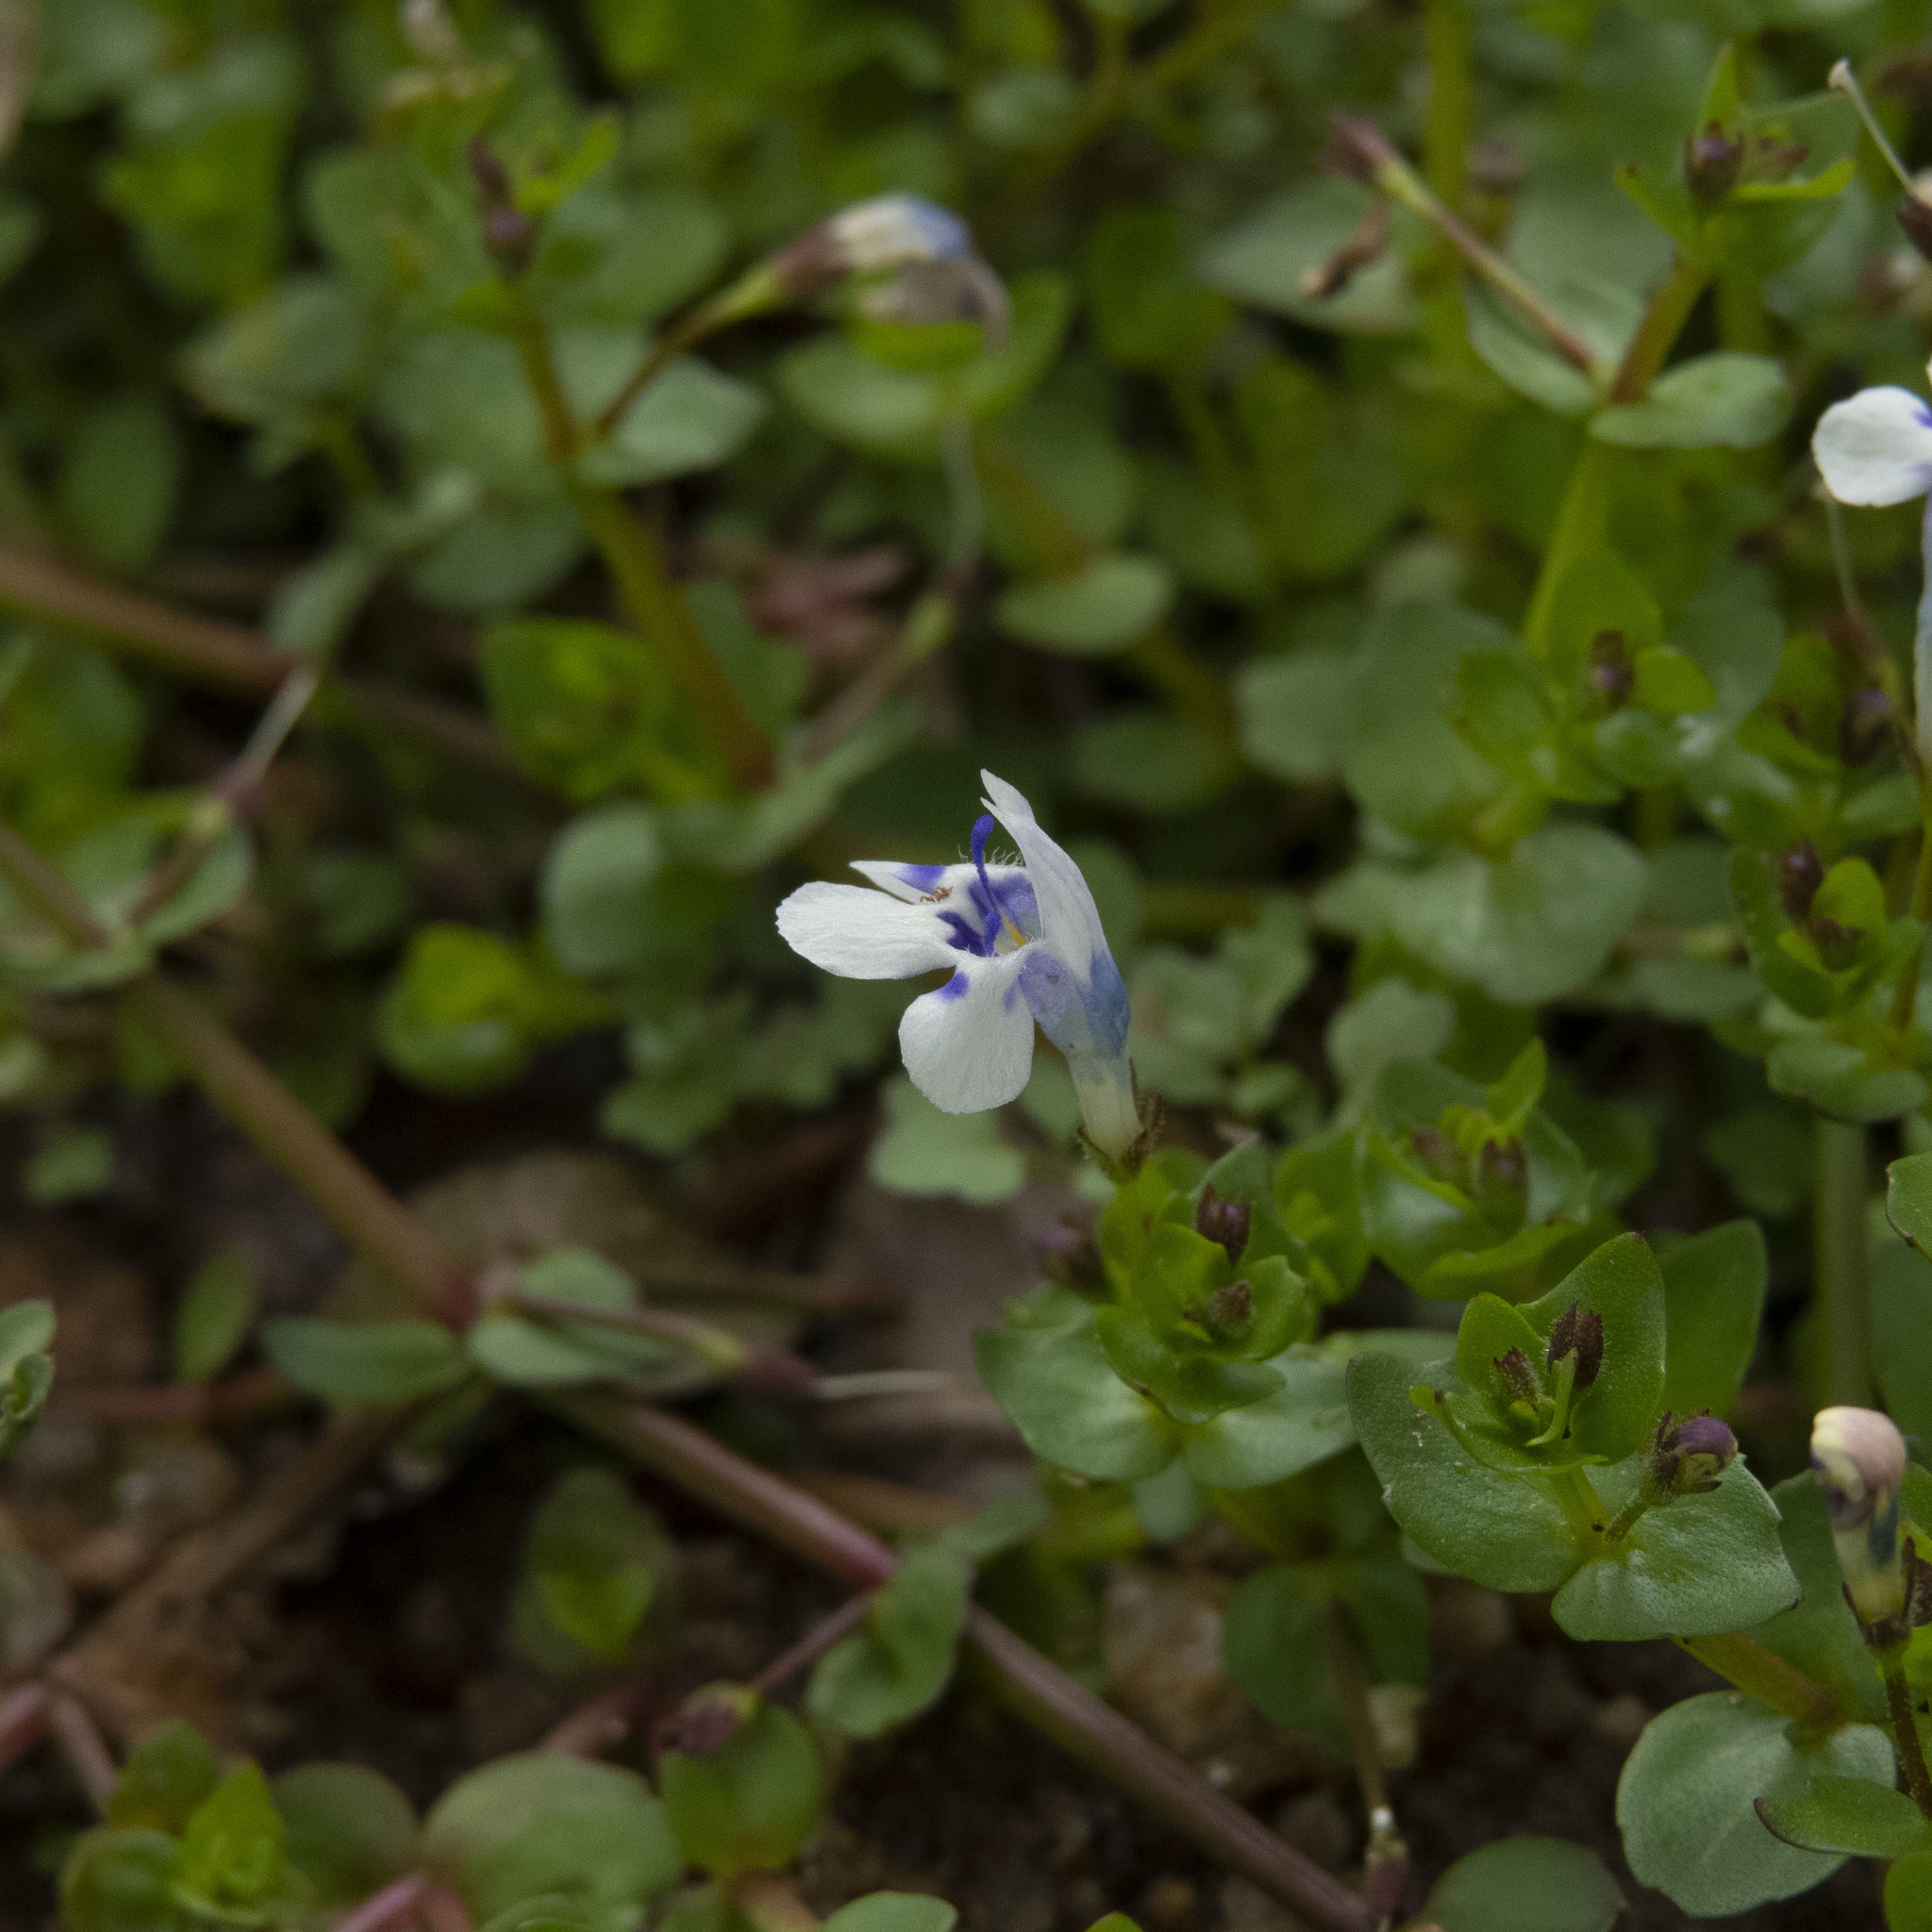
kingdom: Plantae
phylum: Tracheophyta
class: Magnoliopsida
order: Lamiales
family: Linderniaceae
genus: Lindernia
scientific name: Lindernia rotundifolia
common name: Baby’s tears
